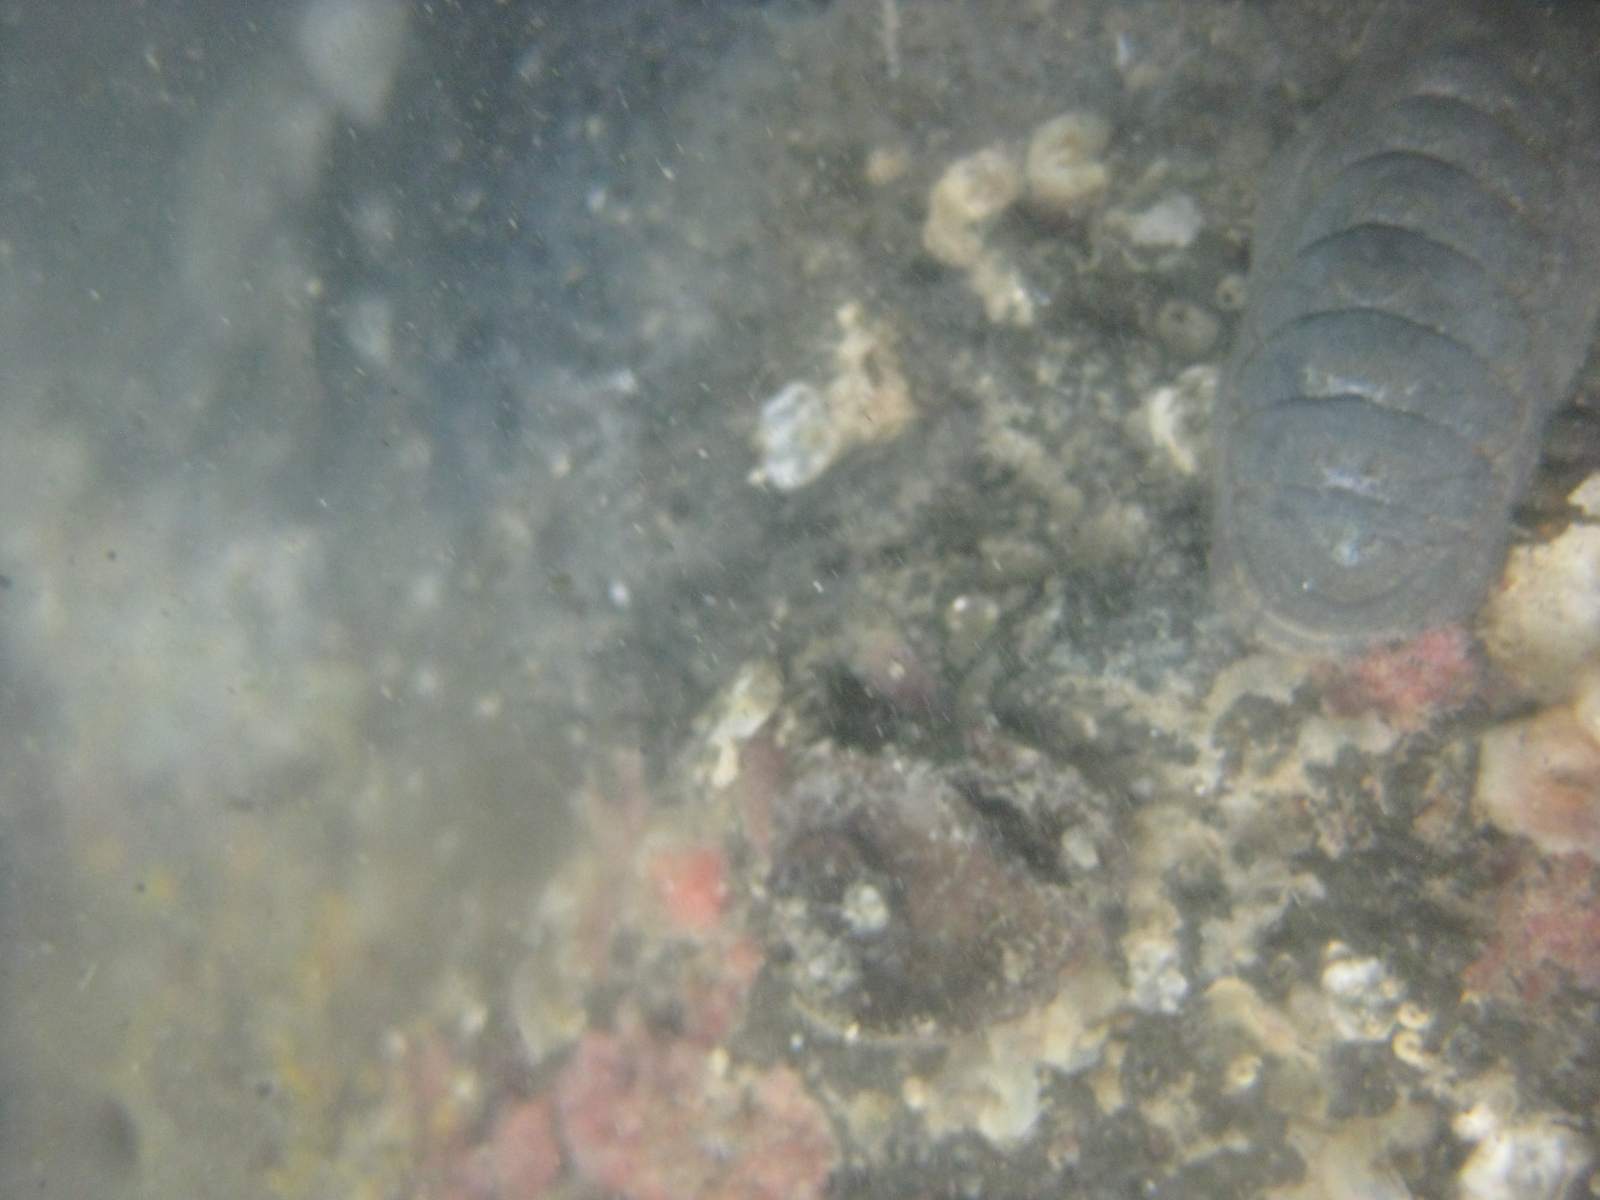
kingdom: Animalia
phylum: Mollusca
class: Polyplacophora
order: Chitonida
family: Ischnochitonidae
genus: Ischnochiton
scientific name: Ischnochiton maorianus
